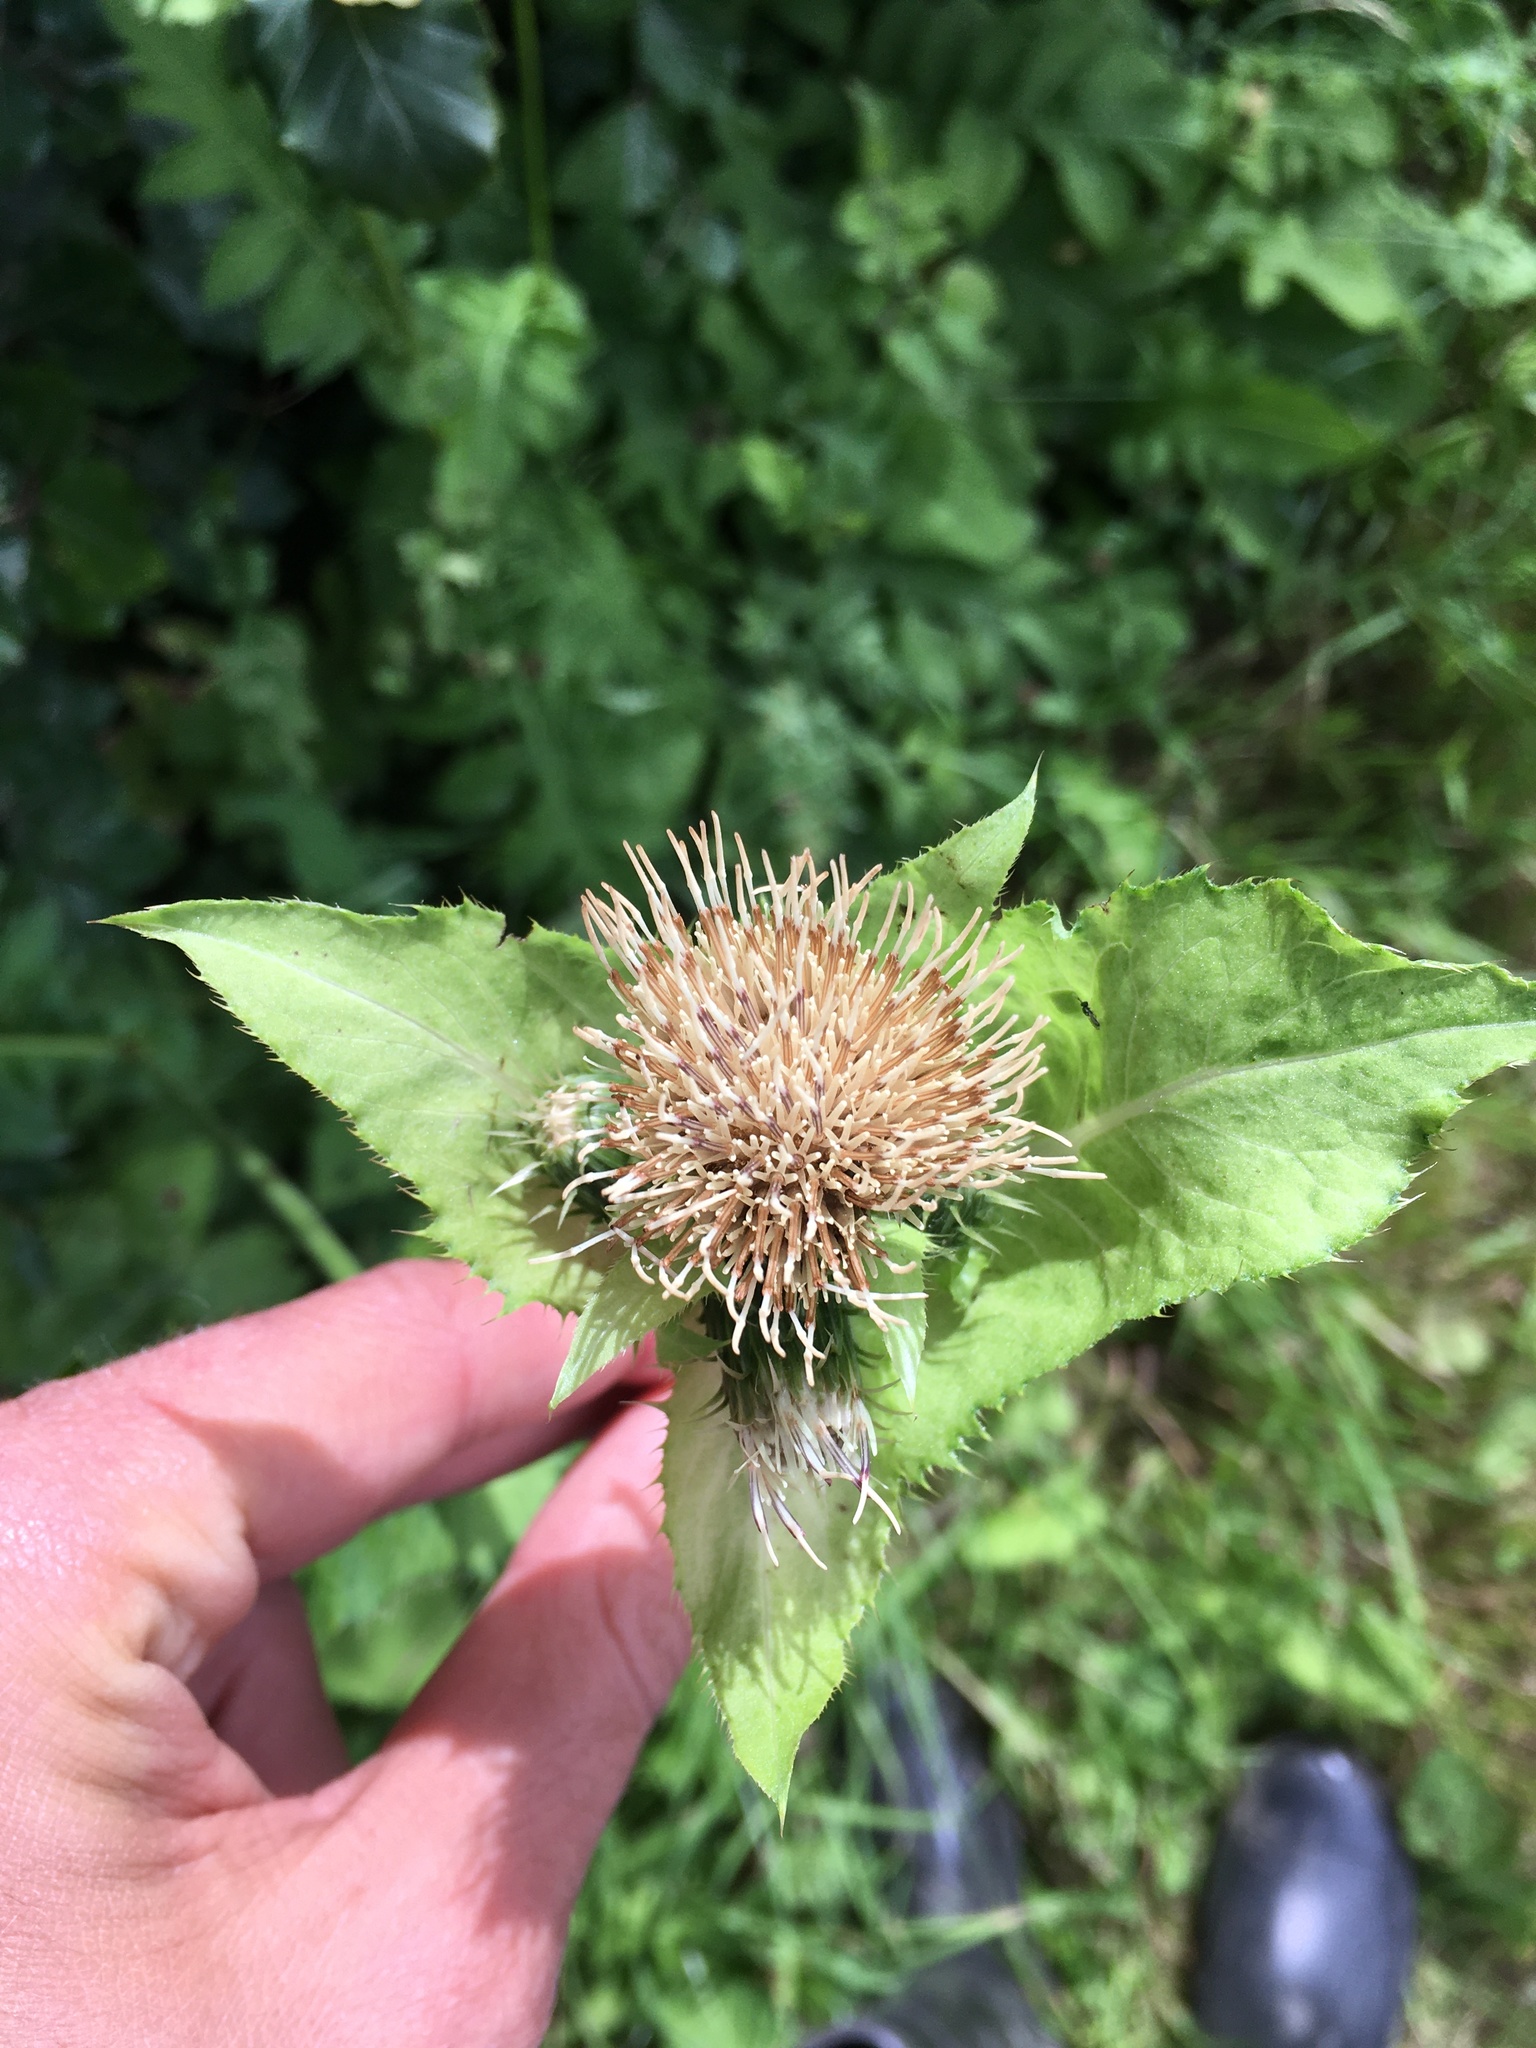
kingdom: Plantae
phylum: Tracheophyta
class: Magnoliopsida
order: Asterales
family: Asteraceae
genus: Cirsium
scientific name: Cirsium oleraceum
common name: Cabbage thistle
